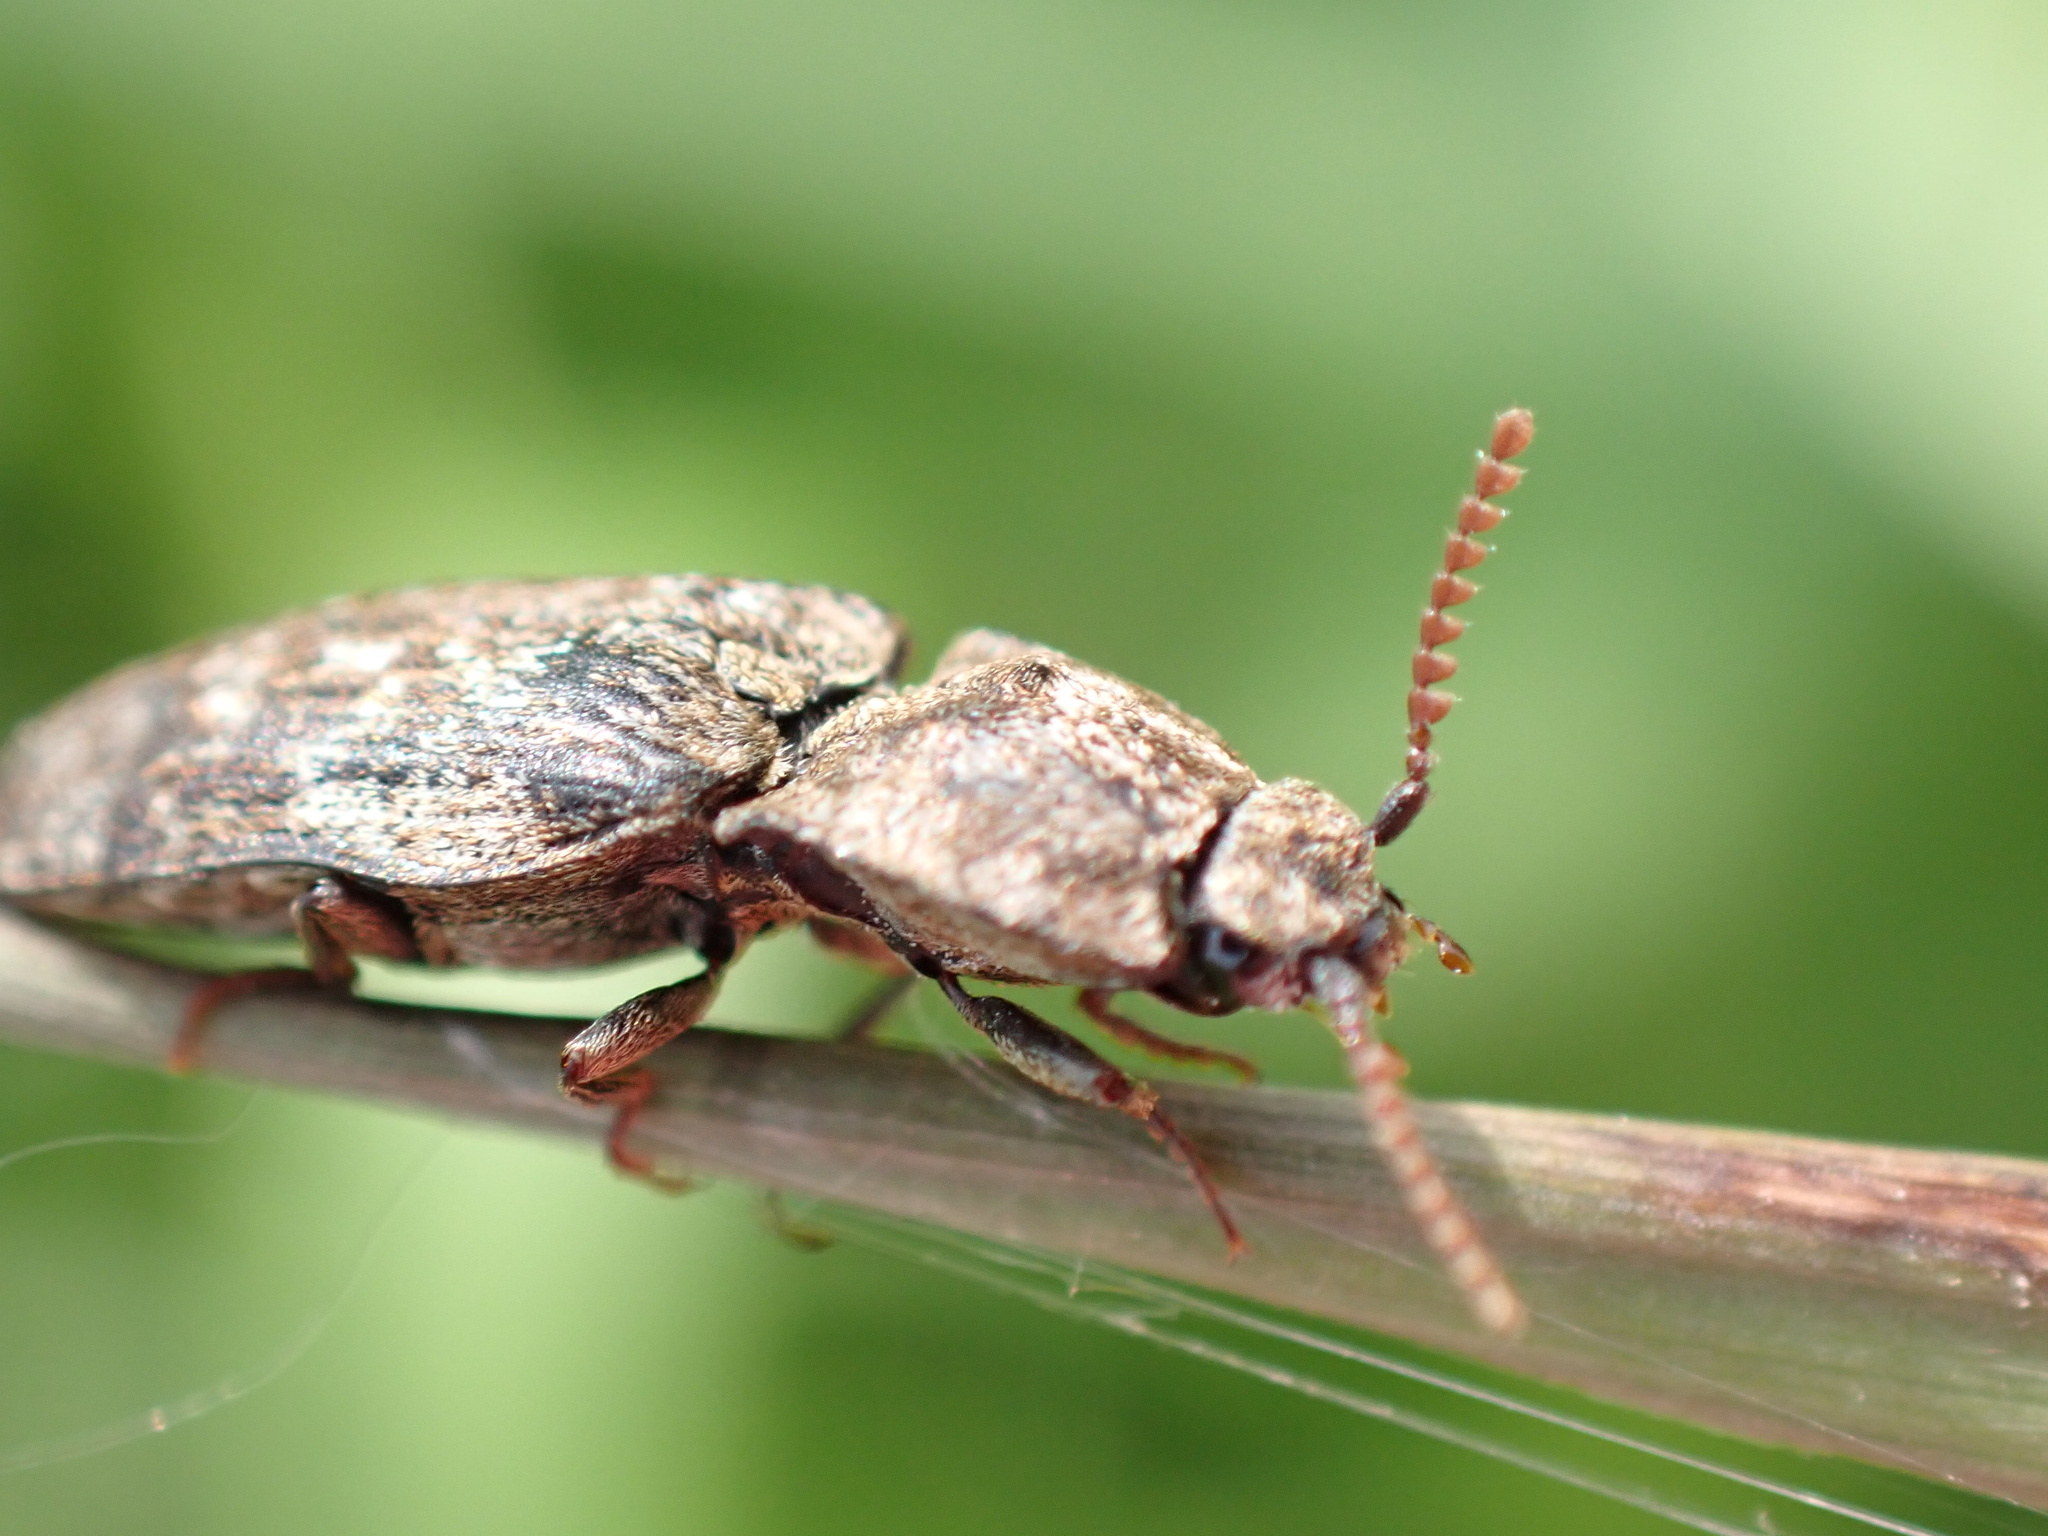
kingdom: Animalia
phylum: Arthropoda
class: Insecta
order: Coleoptera
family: Elateridae
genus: Agrypnus
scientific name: Agrypnus murinus
